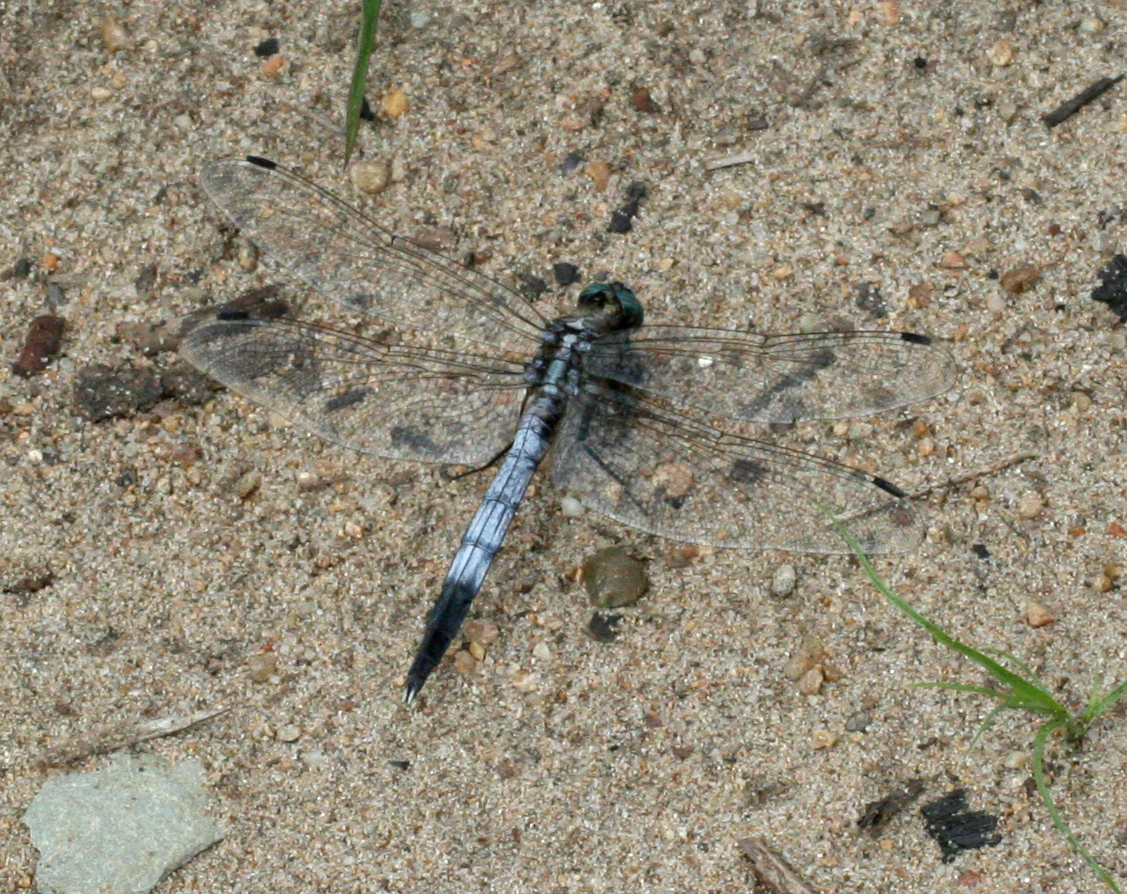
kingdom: Animalia
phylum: Arthropoda
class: Insecta
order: Odonata
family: Libellulidae
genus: Orthetrum
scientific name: Orthetrum albistylum
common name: White-tailed skimmer
